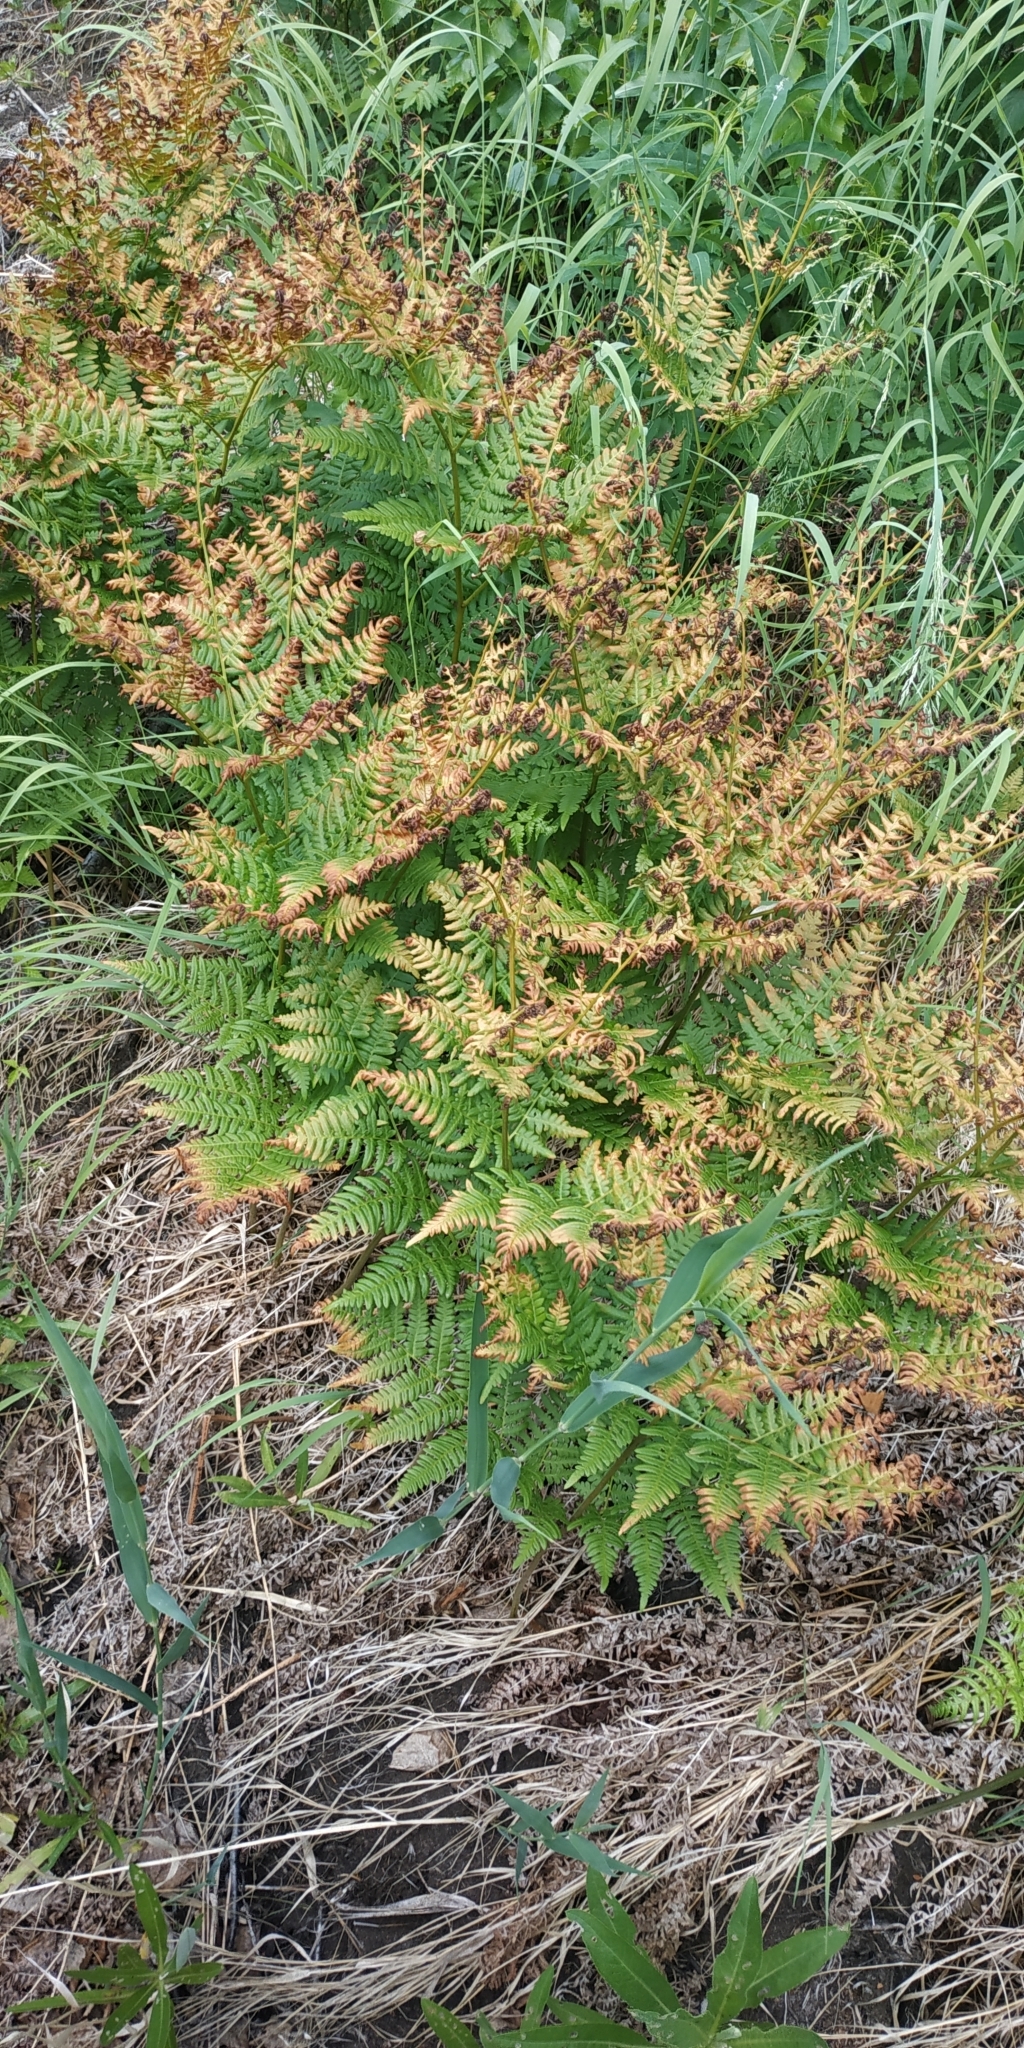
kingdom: Plantae
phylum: Tracheophyta
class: Polypodiopsida
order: Polypodiales
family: Dennstaedtiaceae
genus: Pteridium
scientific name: Pteridium aquilinum
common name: Bracken
